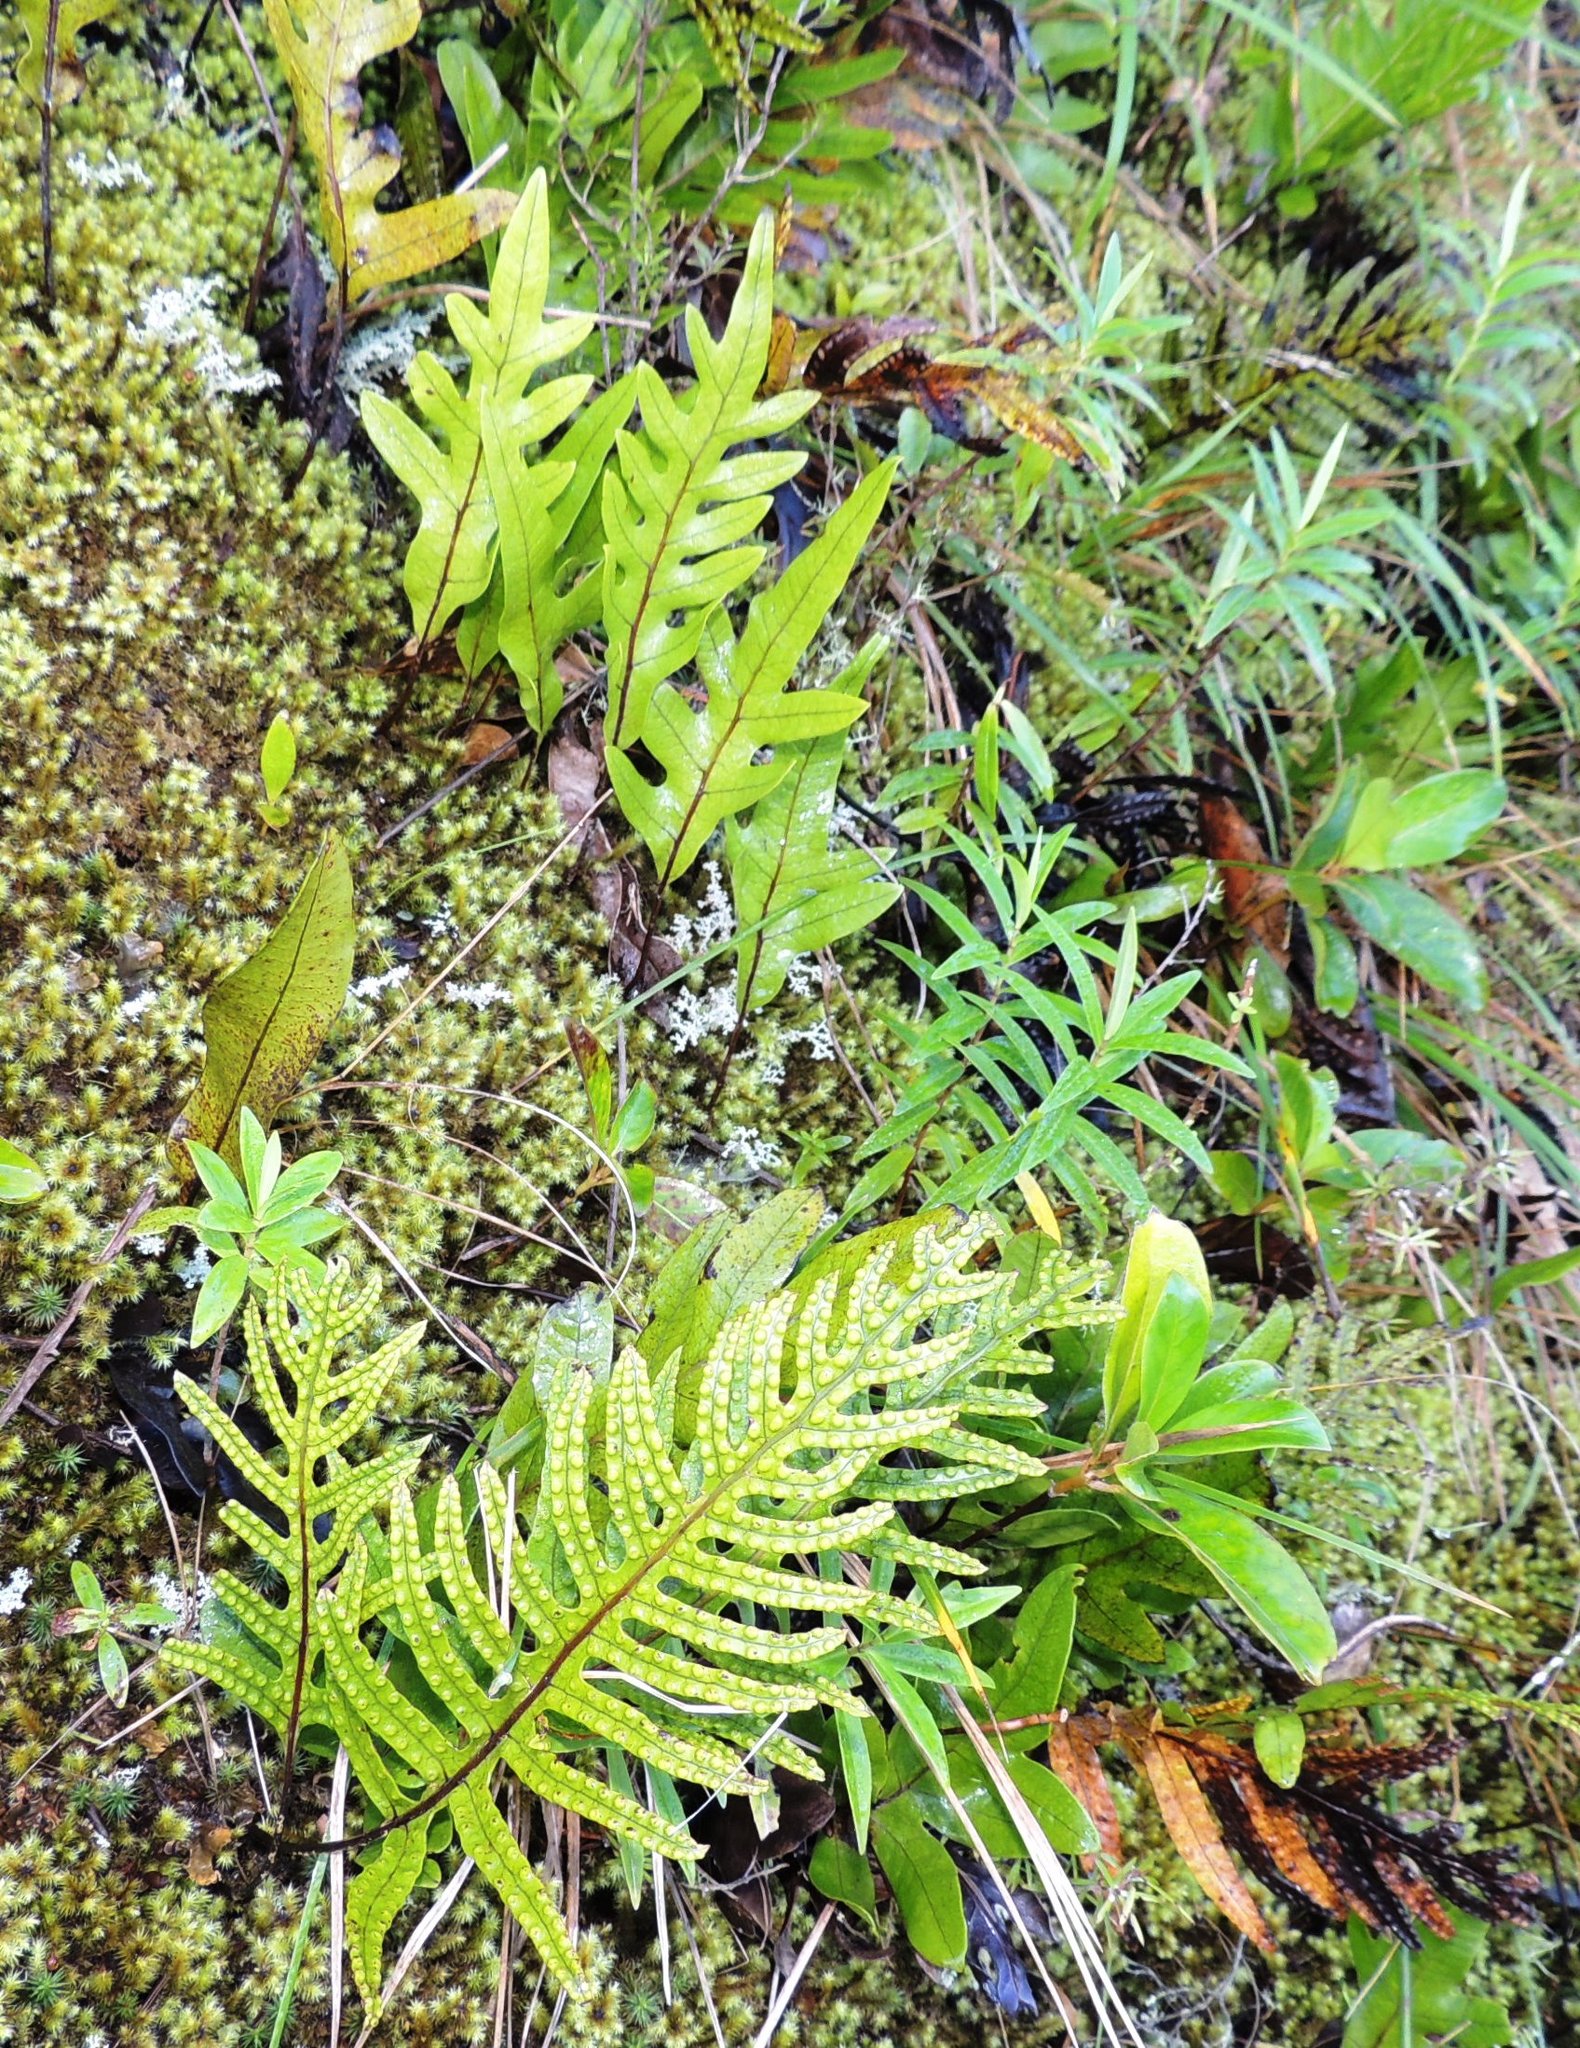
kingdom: Plantae
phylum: Tracheophyta
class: Polypodiopsida
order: Polypodiales
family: Polypodiaceae
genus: Lecanopteris
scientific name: Lecanopteris pustulata
